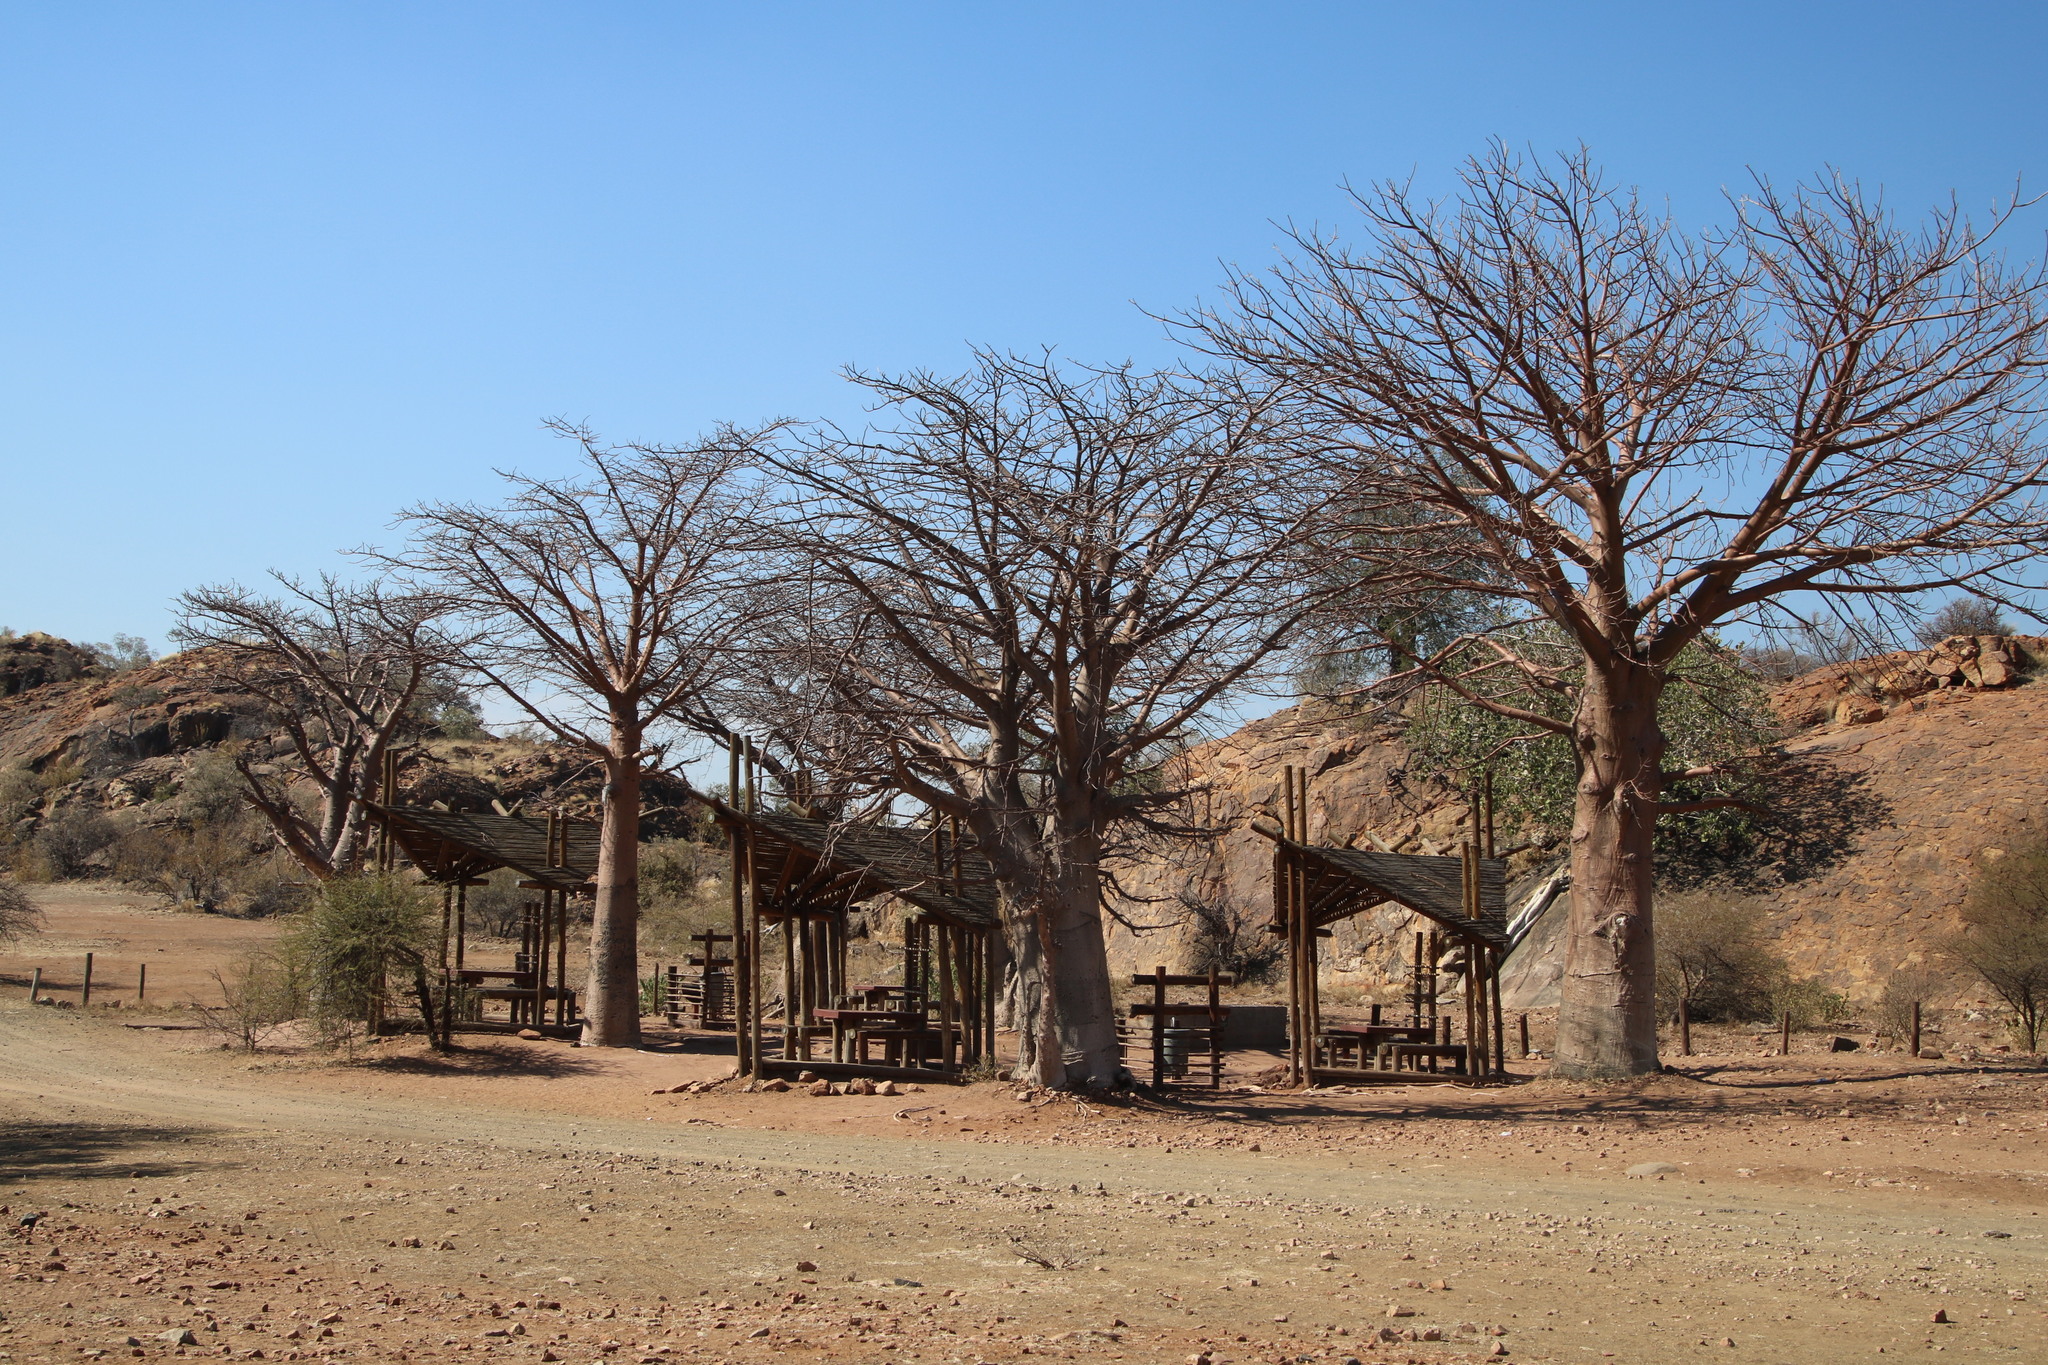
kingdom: Plantae
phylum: Tracheophyta
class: Magnoliopsida
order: Malvales
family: Malvaceae
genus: Adansonia
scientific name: Adansonia digitata
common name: Dead-rat-tree
